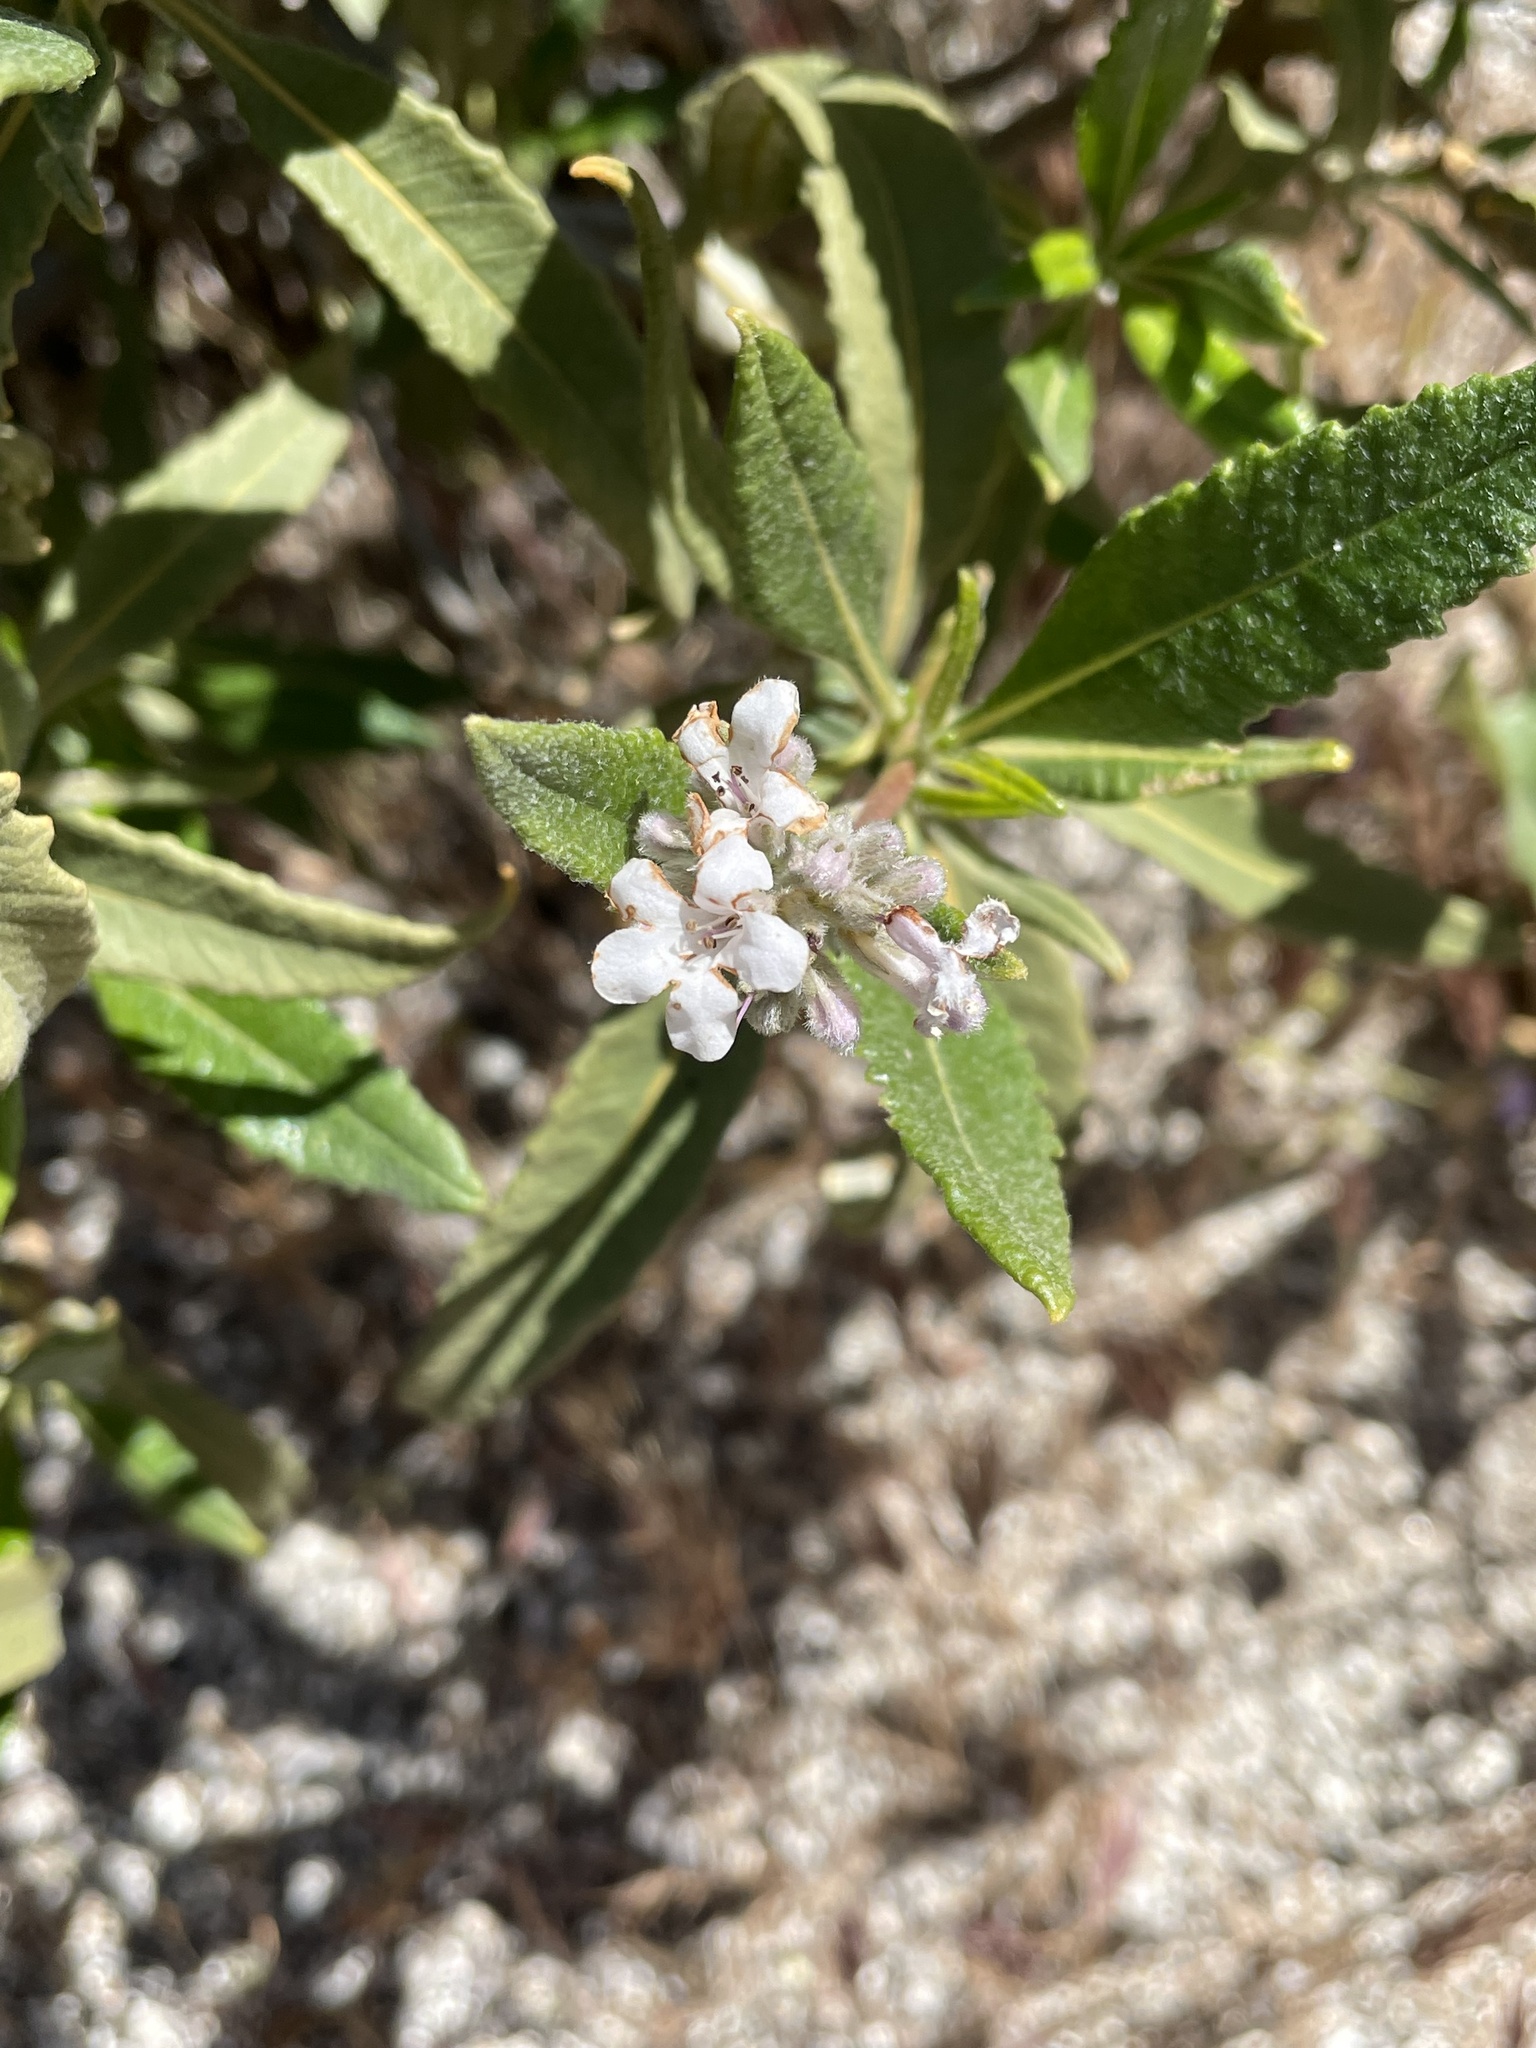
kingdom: Plantae
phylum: Tracheophyta
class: Magnoliopsida
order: Boraginales
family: Namaceae
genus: Eriodictyon
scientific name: Eriodictyon trichocalyx
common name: Hairy yerba-santa
